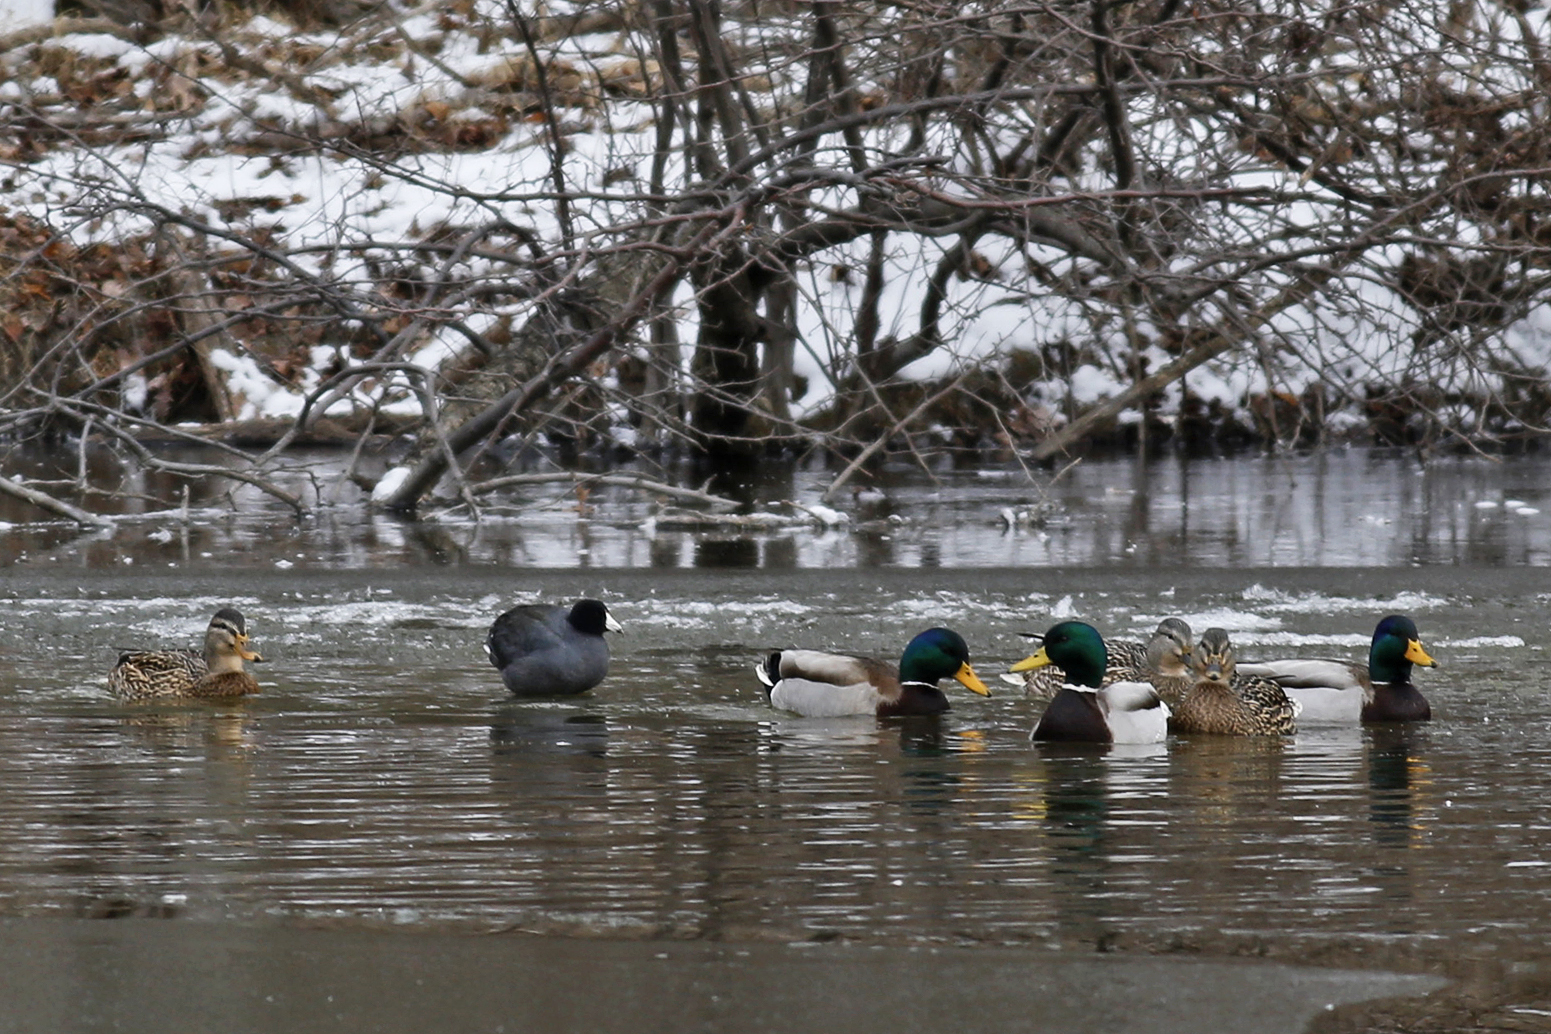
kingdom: Animalia
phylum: Chordata
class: Aves
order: Gruiformes
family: Rallidae
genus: Fulica
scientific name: Fulica americana
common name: American coot
